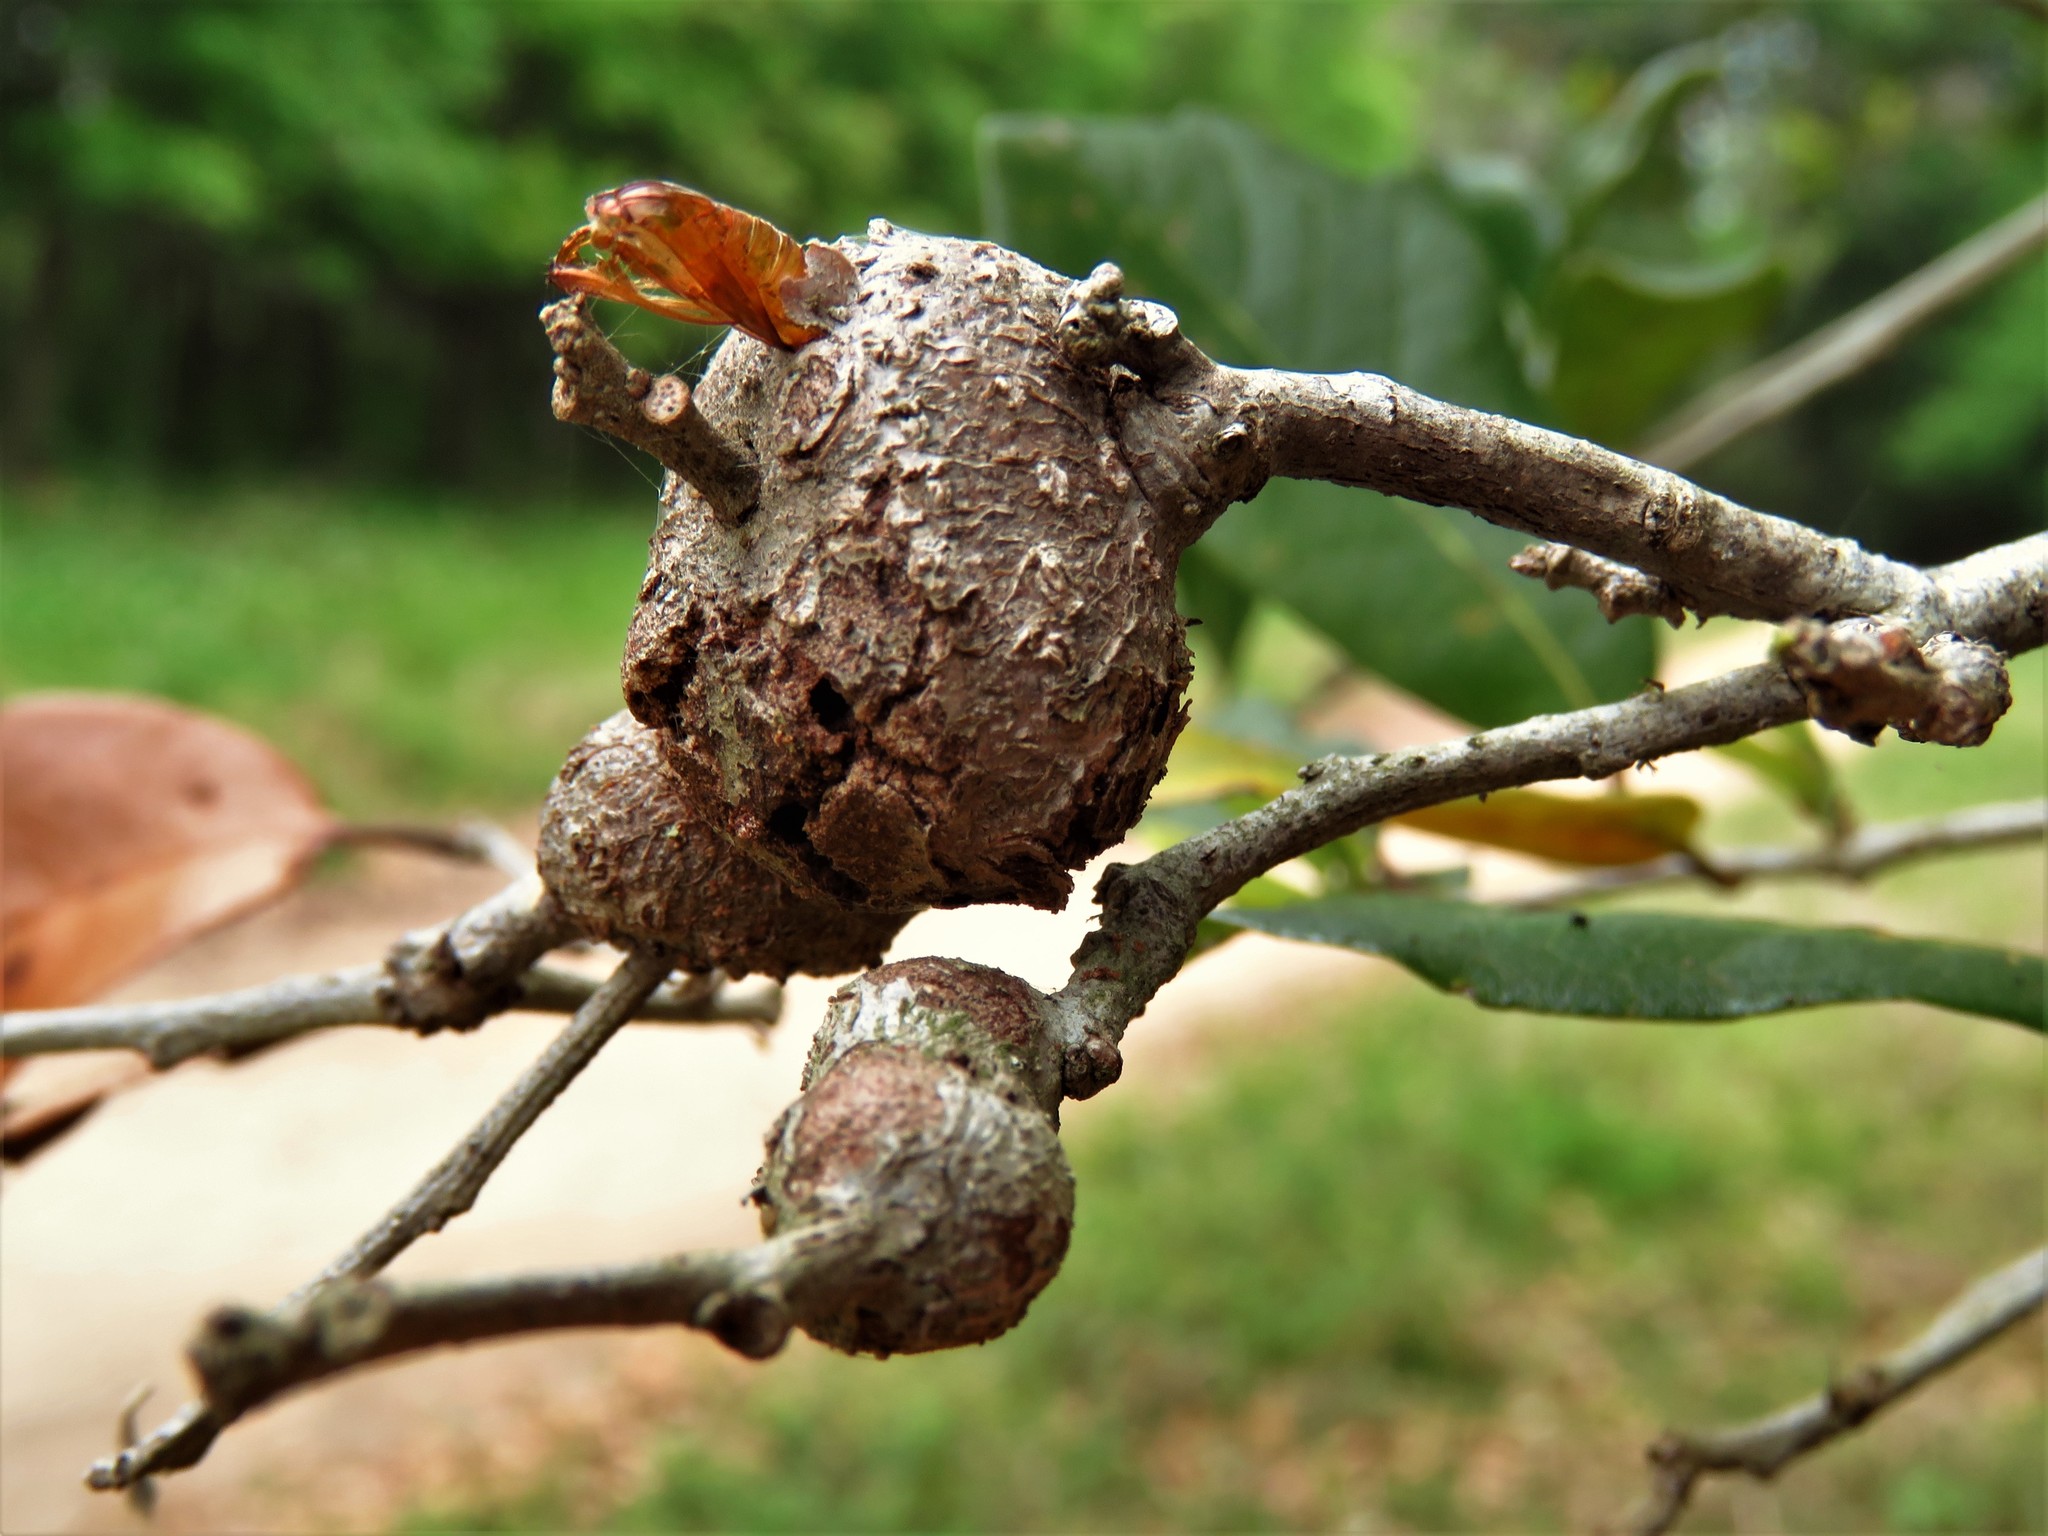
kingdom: Animalia
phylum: Arthropoda
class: Insecta
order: Hymenoptera
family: Cynipidae
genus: Callirhytis
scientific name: Callirhytis
